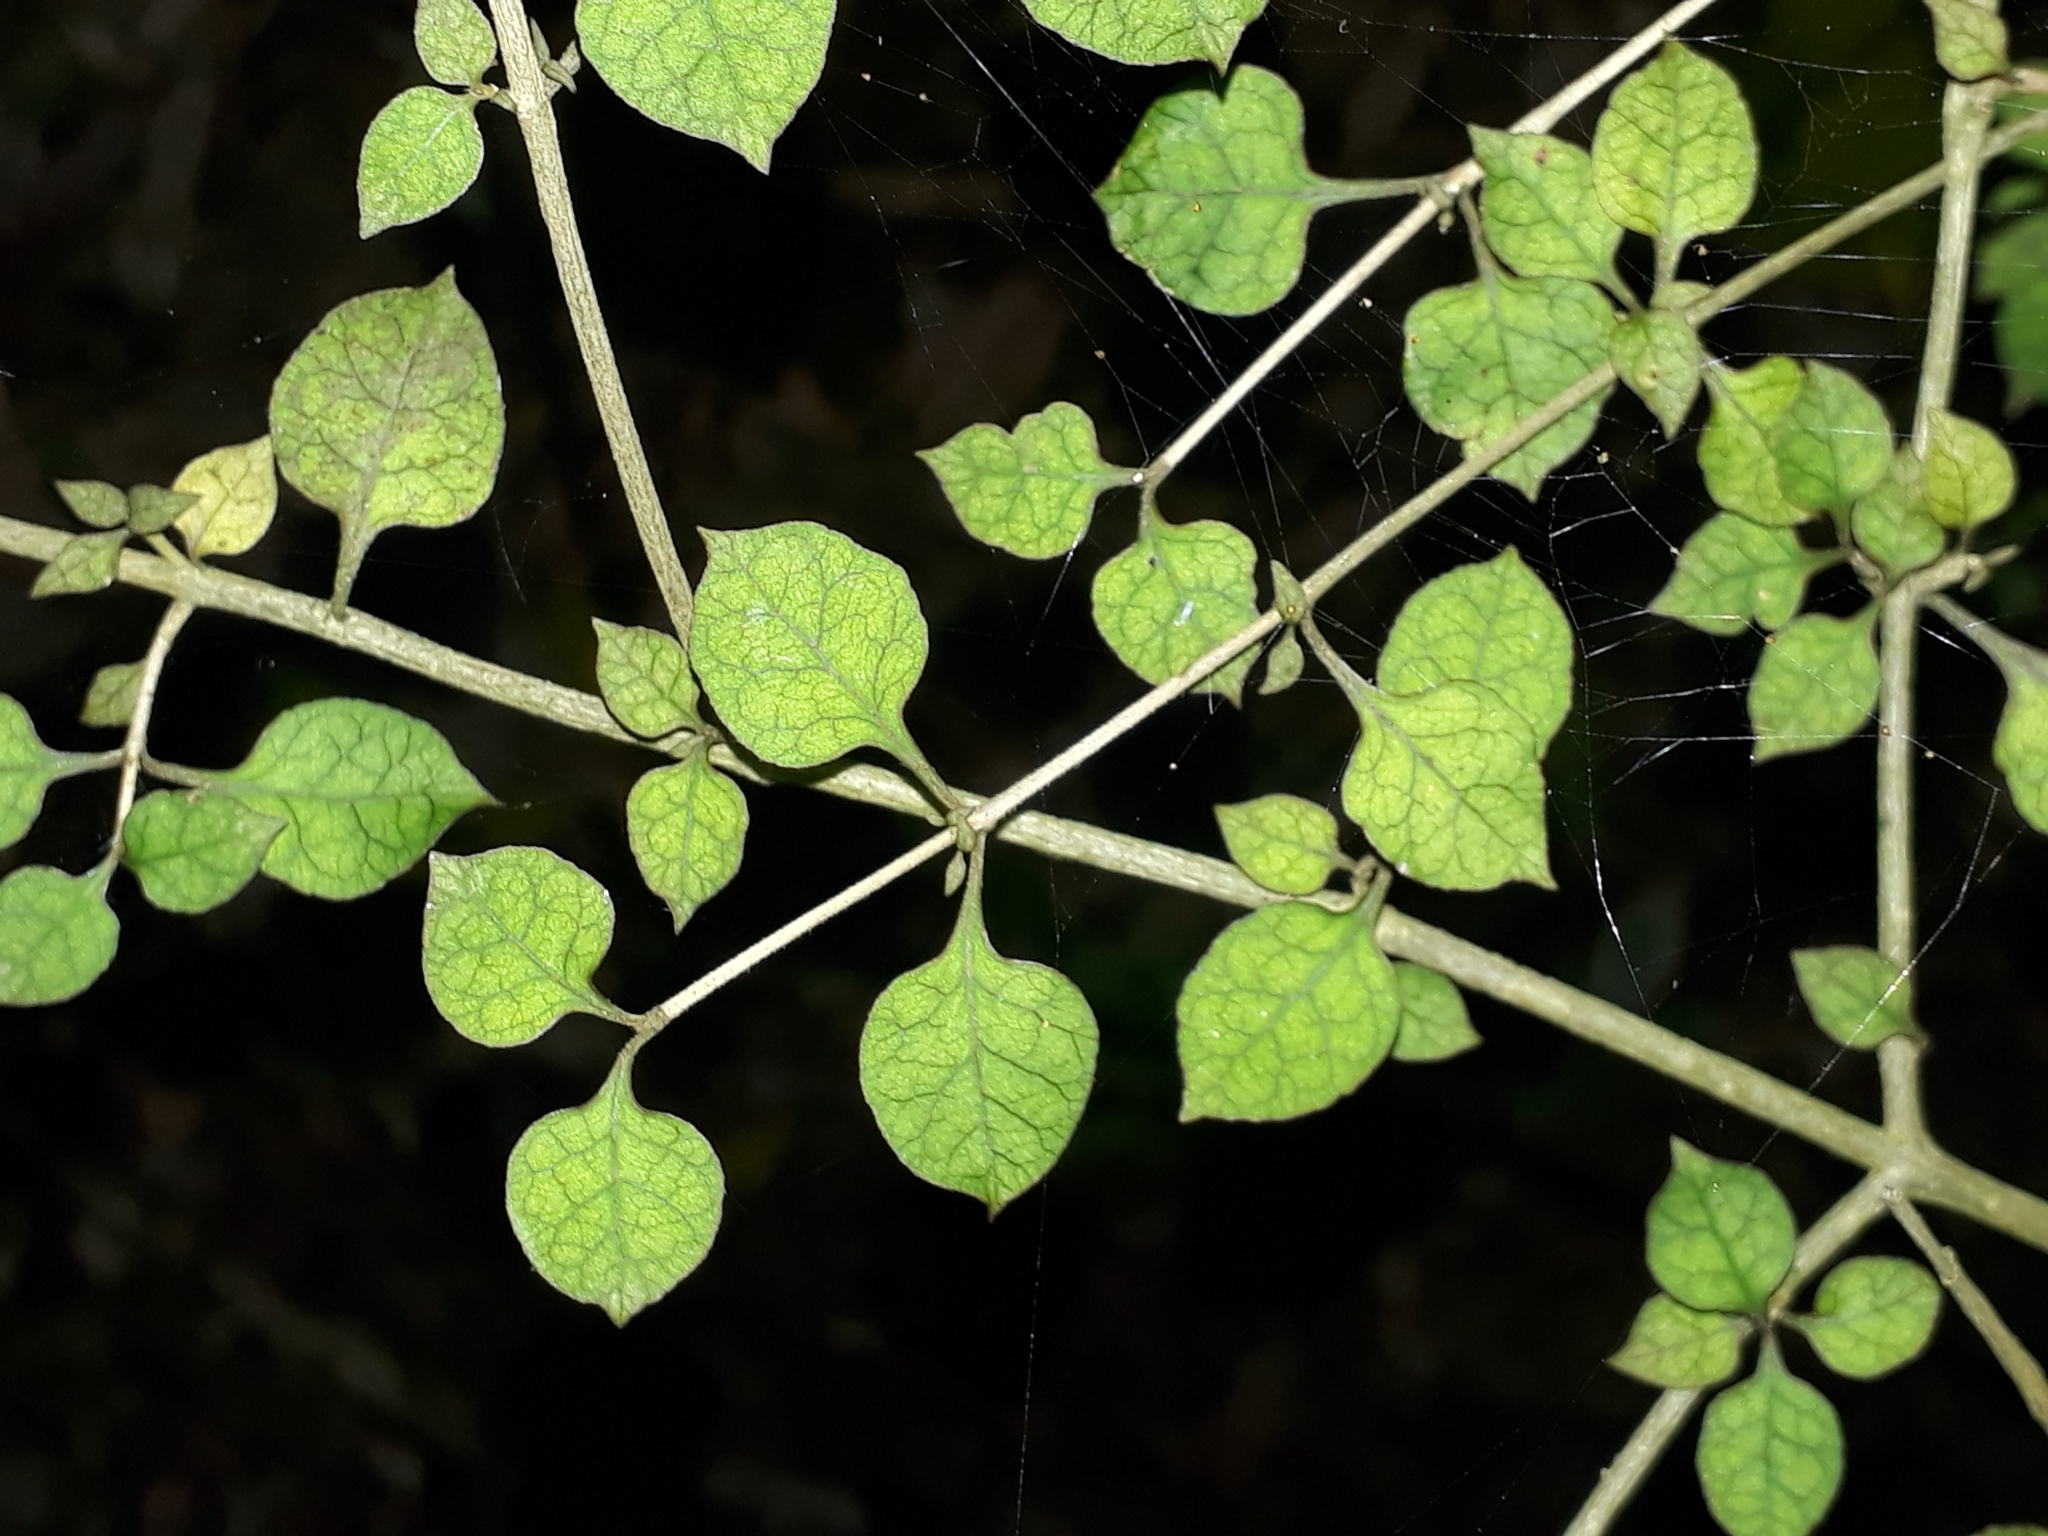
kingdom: Plantae
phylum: Tracheophyta
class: Magnoliopsida
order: Gentianales
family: Rubiaceae
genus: Coprosma
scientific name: Coprosma areolata
